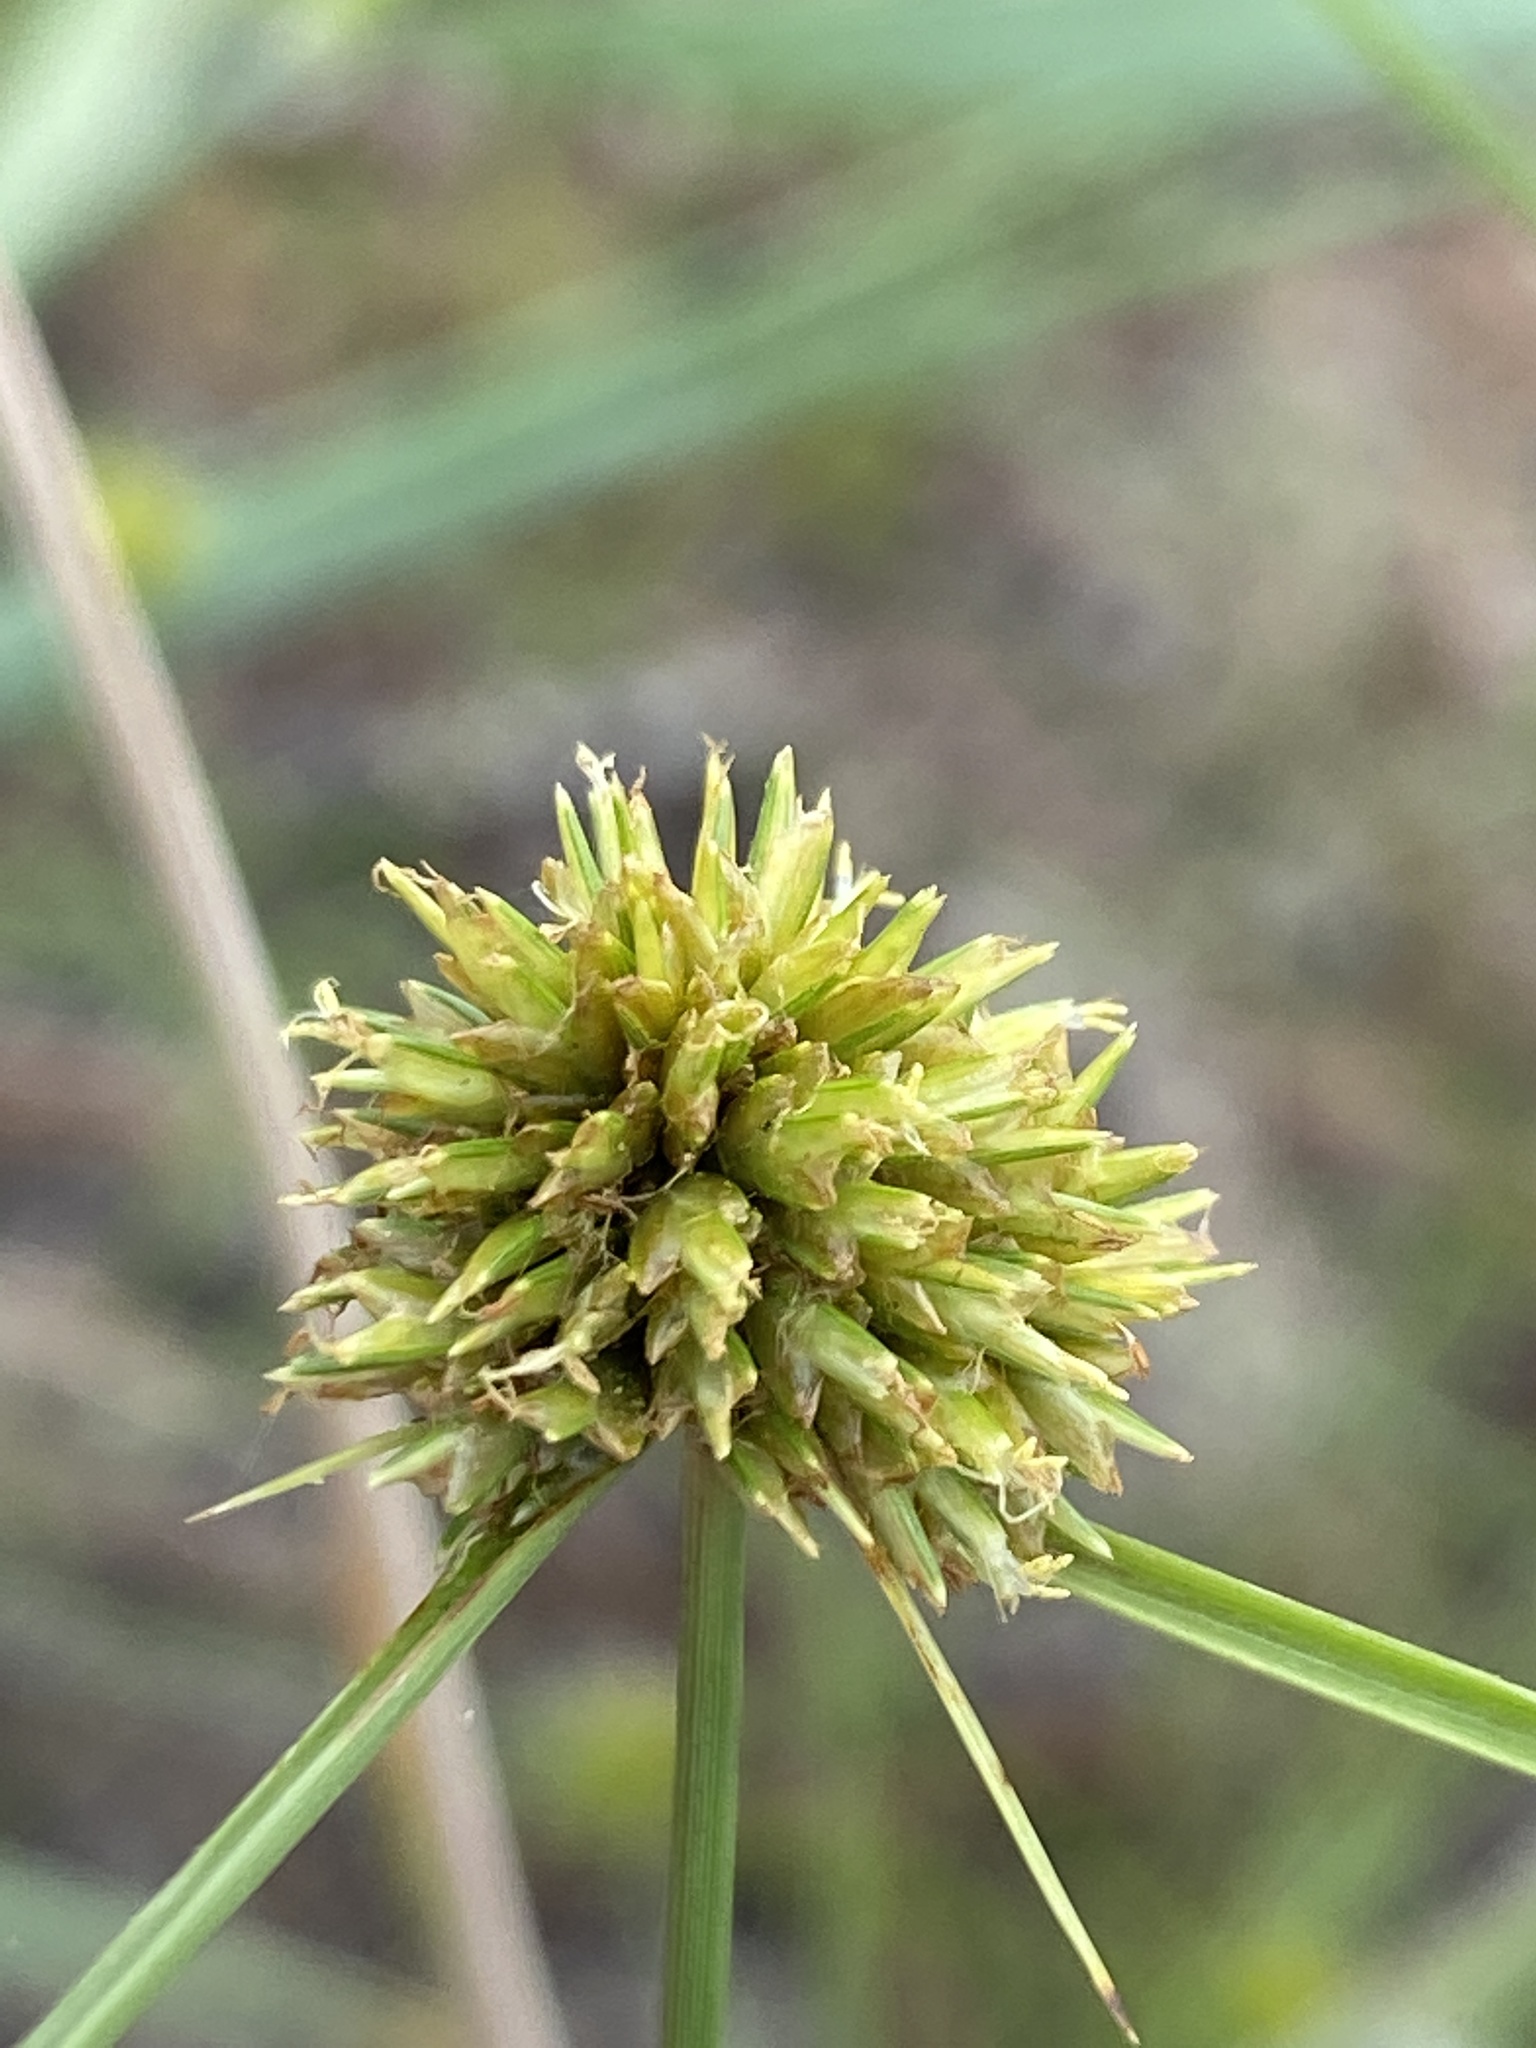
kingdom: Plantae
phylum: Tracheophyta
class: Liliopsida
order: Poales
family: Cyperaceae
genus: Cyperus
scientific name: Cyperus filiculmis
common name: Slender sand sedge
